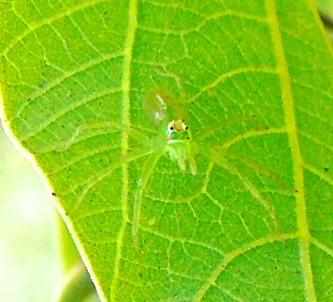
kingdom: Animalia
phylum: Arthropoda
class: Arachnida
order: Araneae
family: Salticidae
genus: Lyssomanes
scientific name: Lyssomanes
